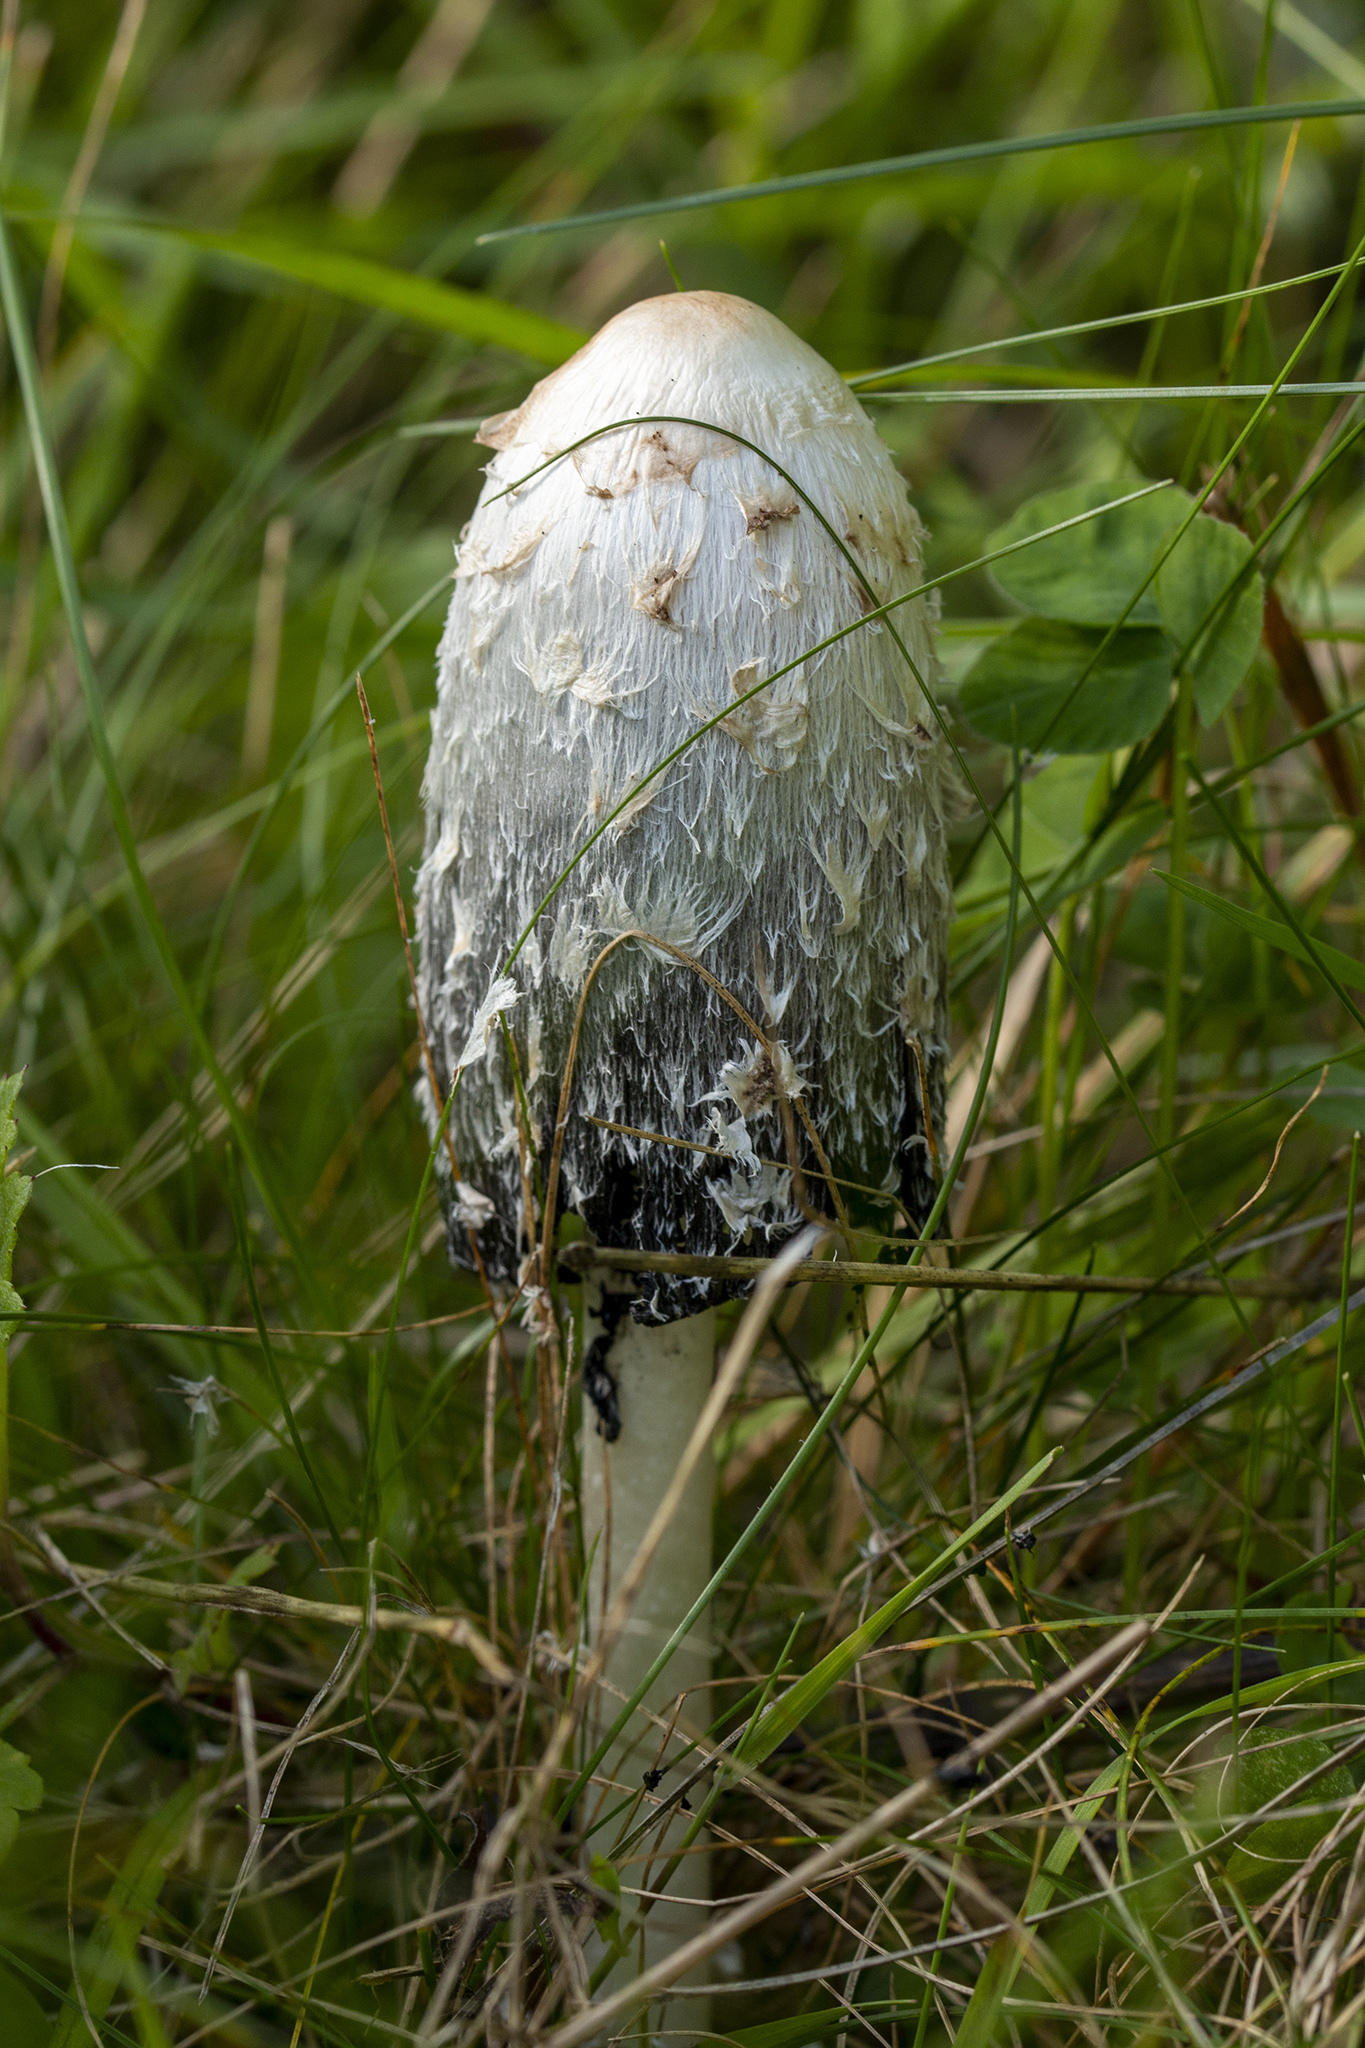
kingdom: Fungi
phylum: Basidiomycota
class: Agaricomycetes
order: Agaricales
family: Agaricaceae
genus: Coprinus
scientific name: Coprinus comatus
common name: Lawyer's wig
